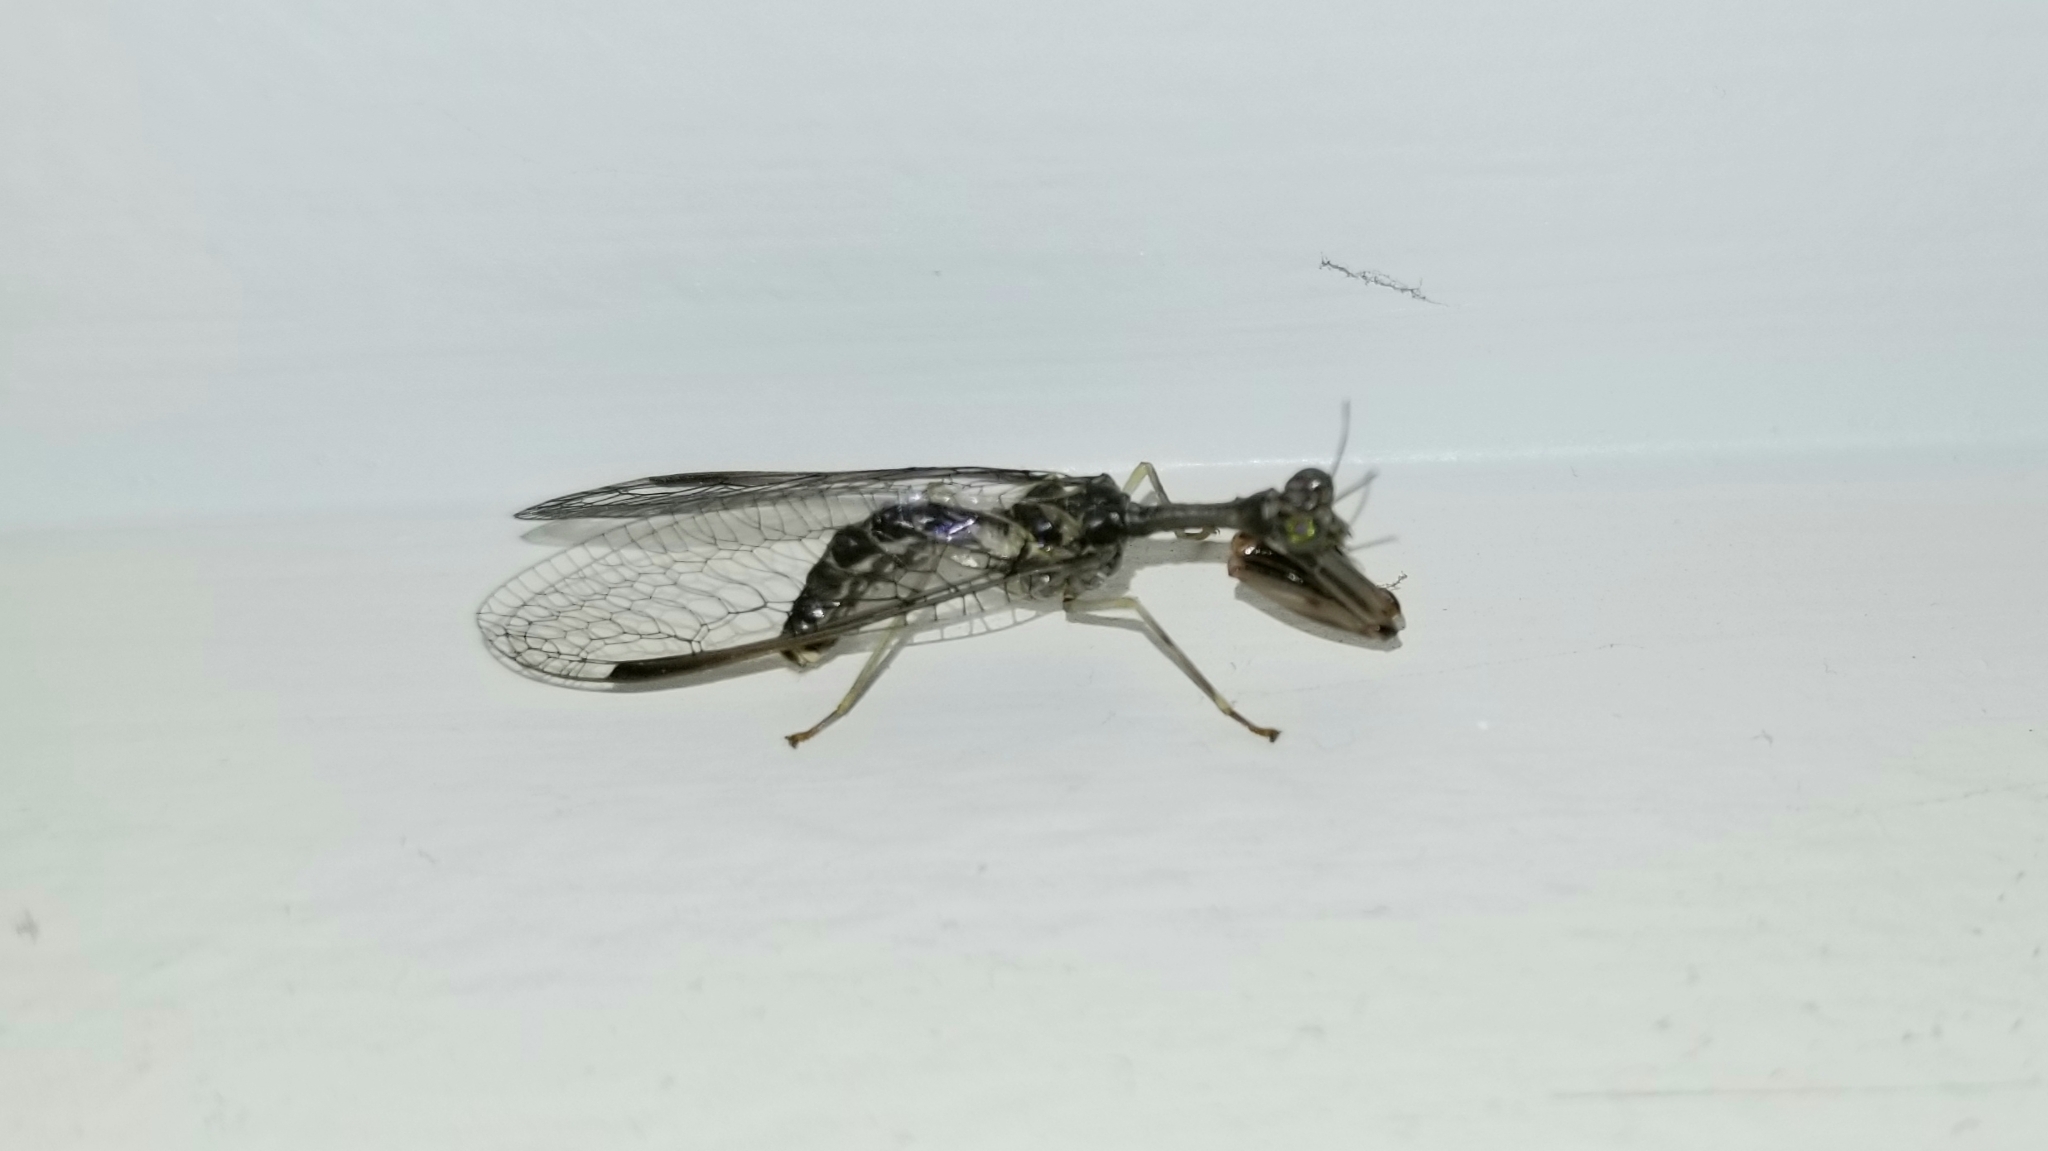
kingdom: Animalia
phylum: Arthropoda
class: Insecta
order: Neuroptera
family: Mantispidae
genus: Dicromantispa
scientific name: Dicromantispa sayi
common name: Say's mantidfly
